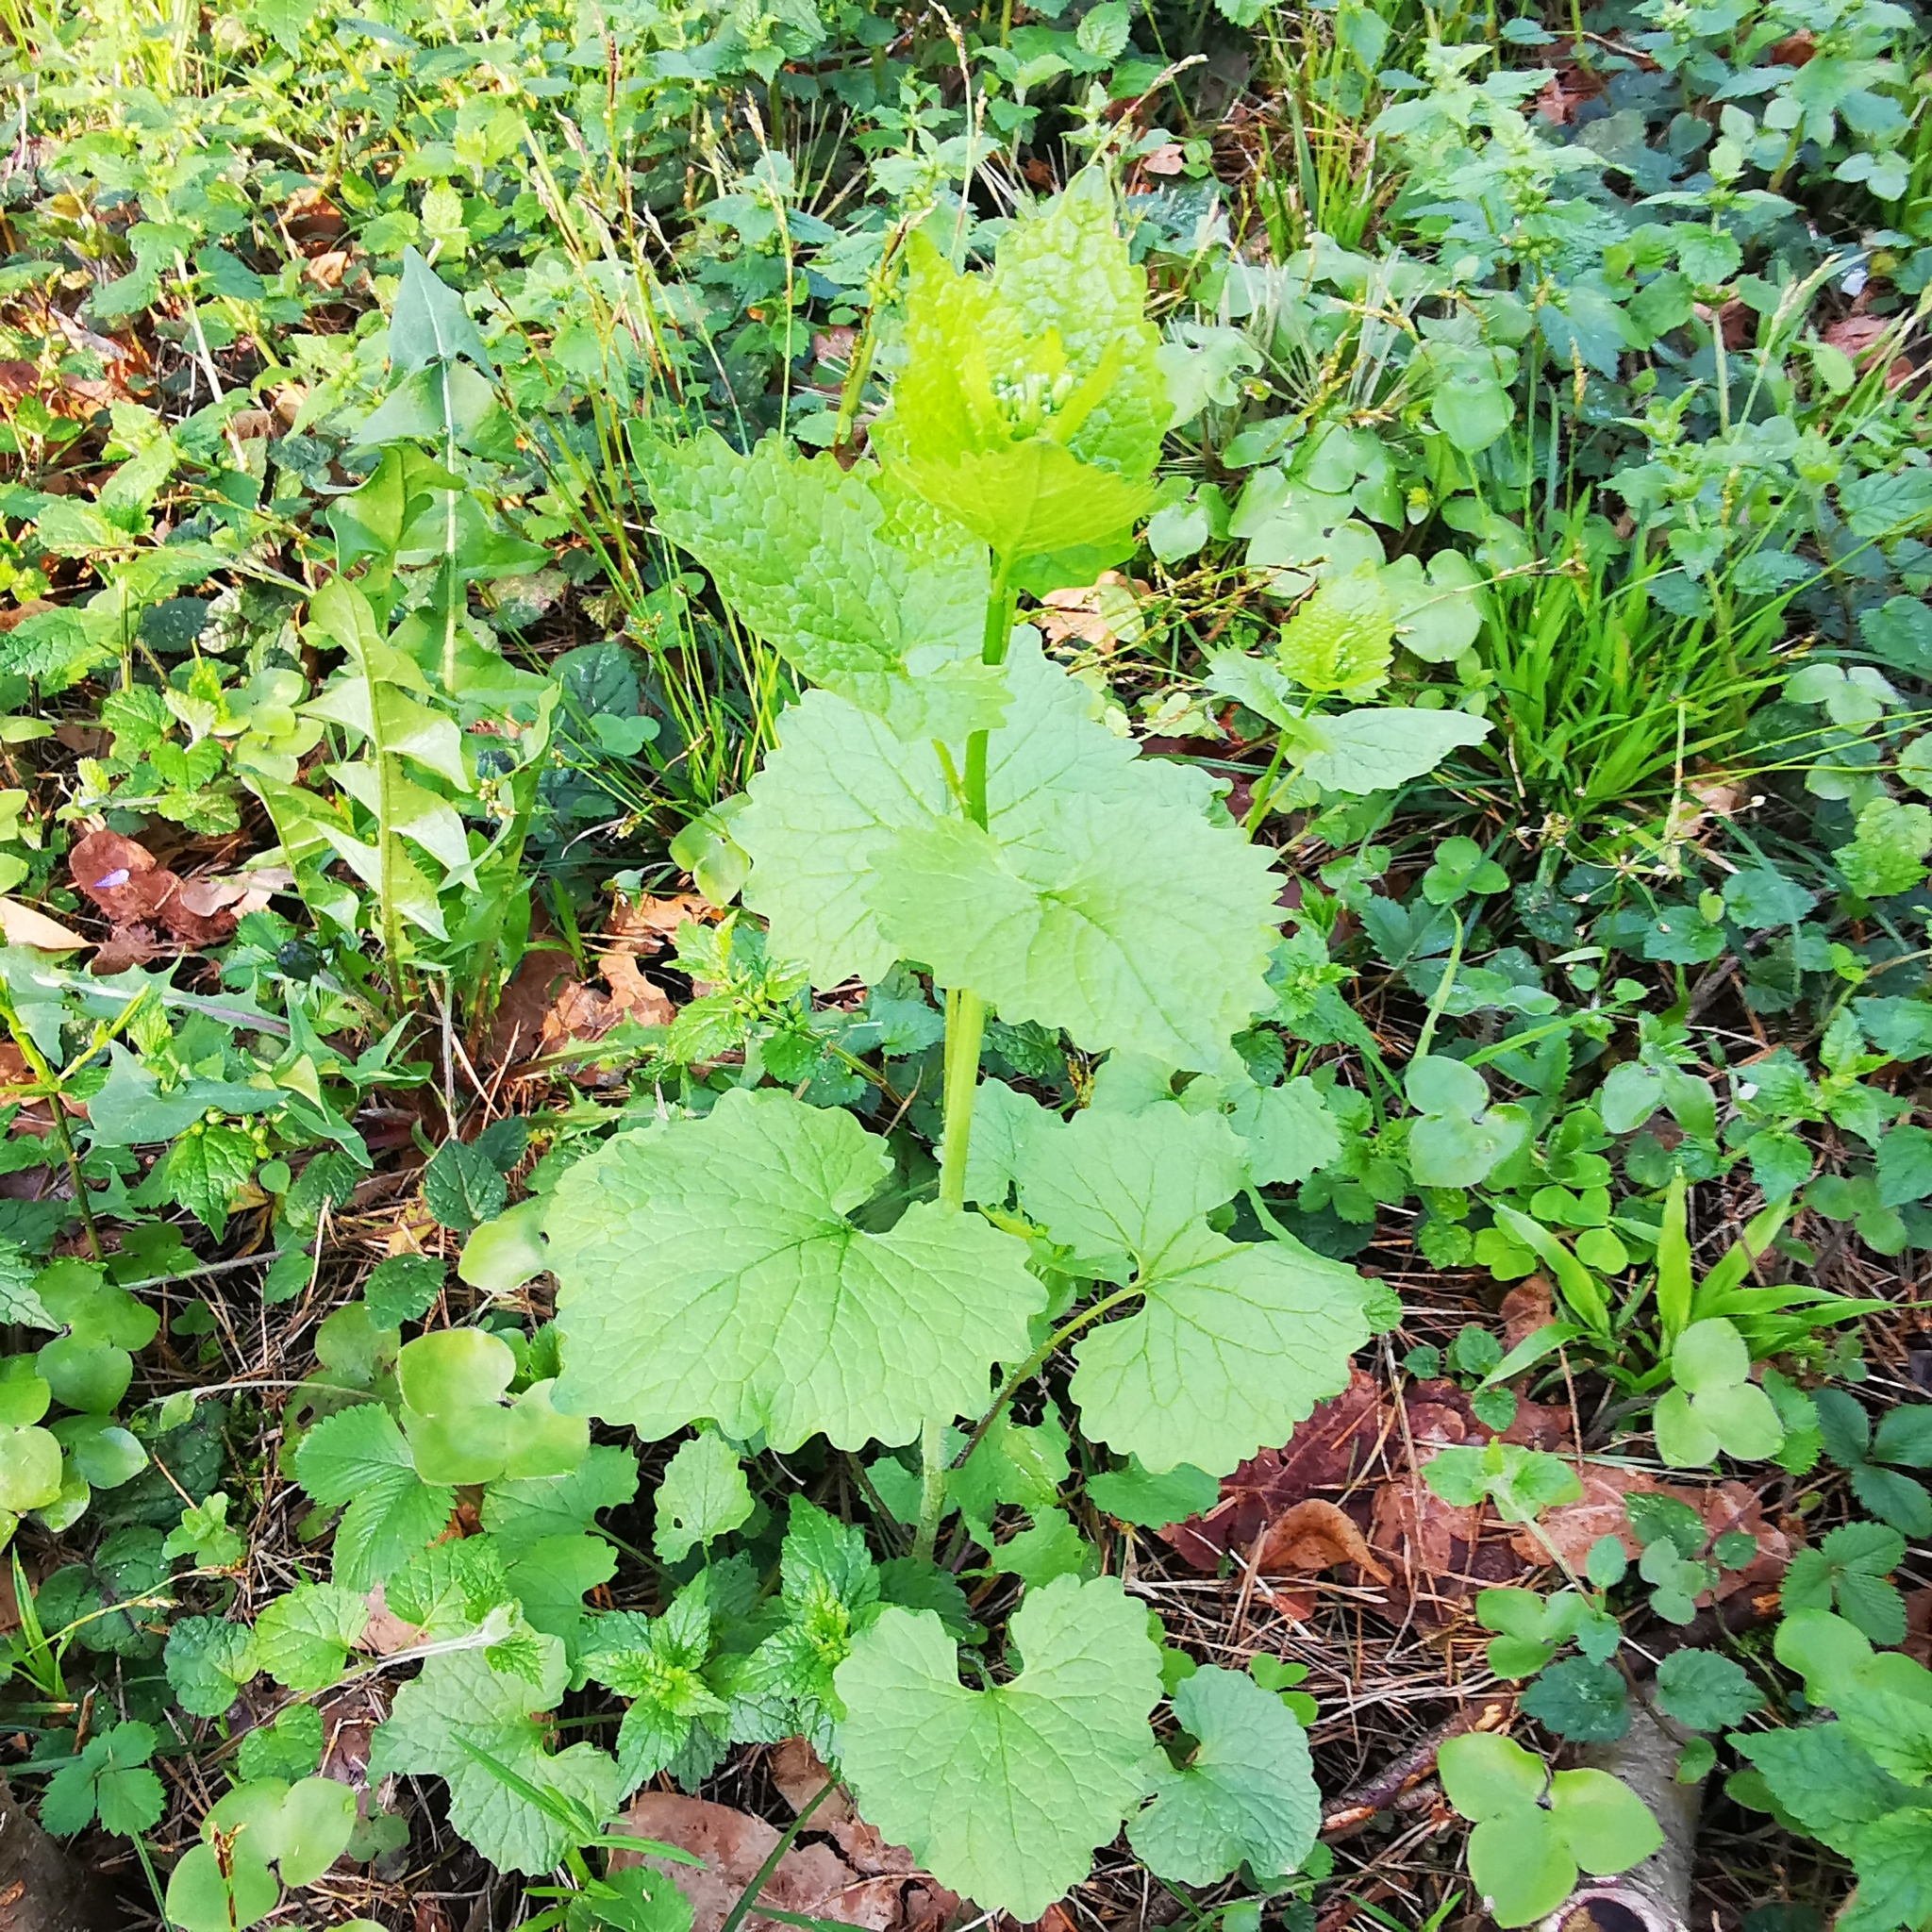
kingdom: Plantae
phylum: Tracheophyta
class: Magnoliopsida
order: Brassicales
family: Brassicaceae
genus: Alliaria
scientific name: Alliaria petiolata
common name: Garlic mustard
